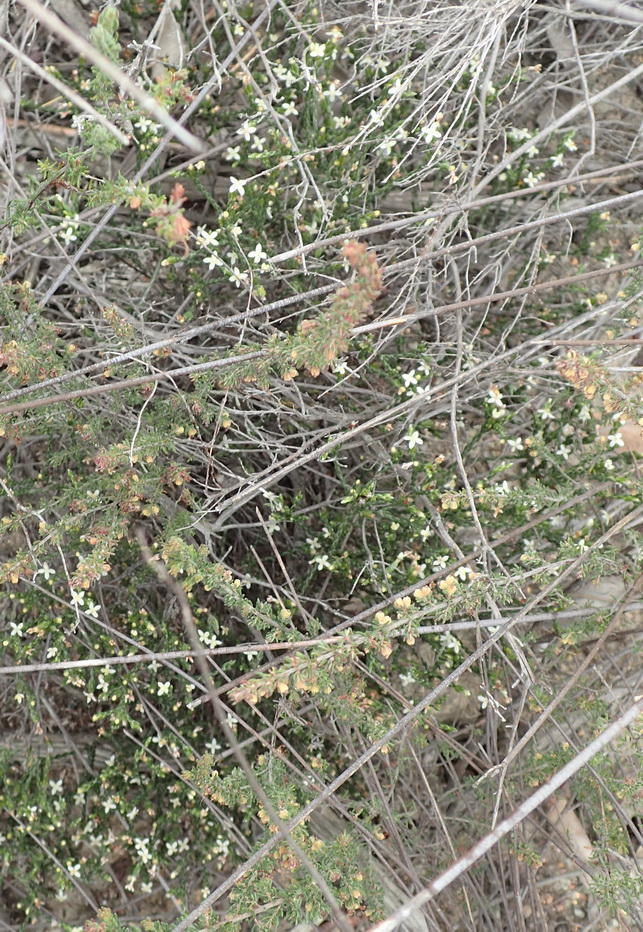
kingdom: Plantae
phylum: Tracheophyta
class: Magnoliopsida
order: Malvales
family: Thymelaeaceae
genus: Lachnaea
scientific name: Lachnaea penicillata
